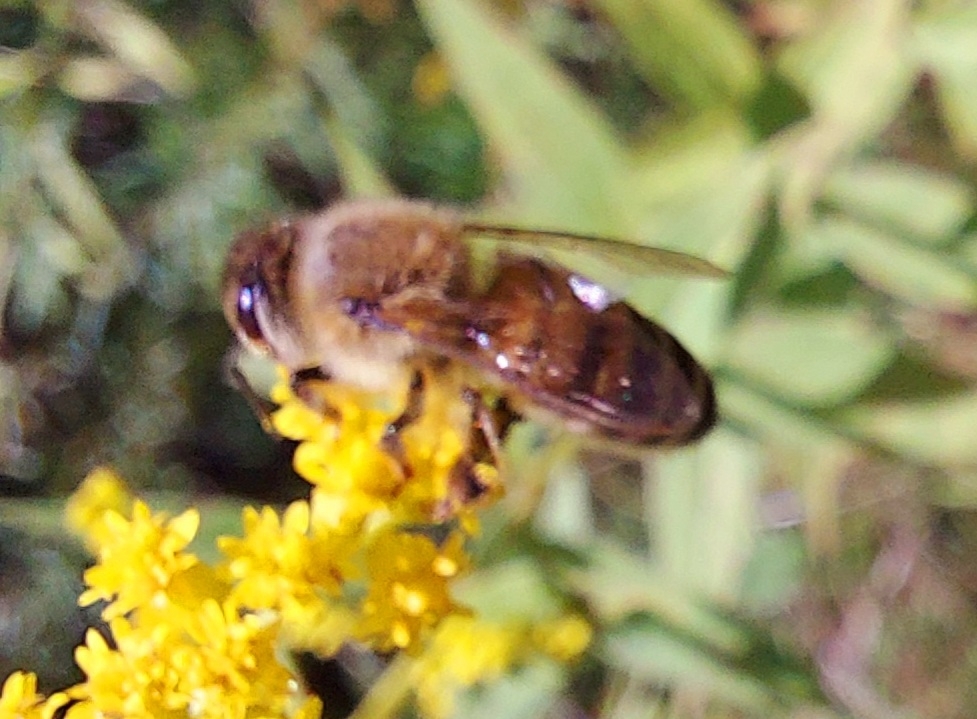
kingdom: Animalia
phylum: Arthropoda
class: Insecta
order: Hymenoptera
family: Apidae
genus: Apis
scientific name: Apis mellifera
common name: Honey bee
